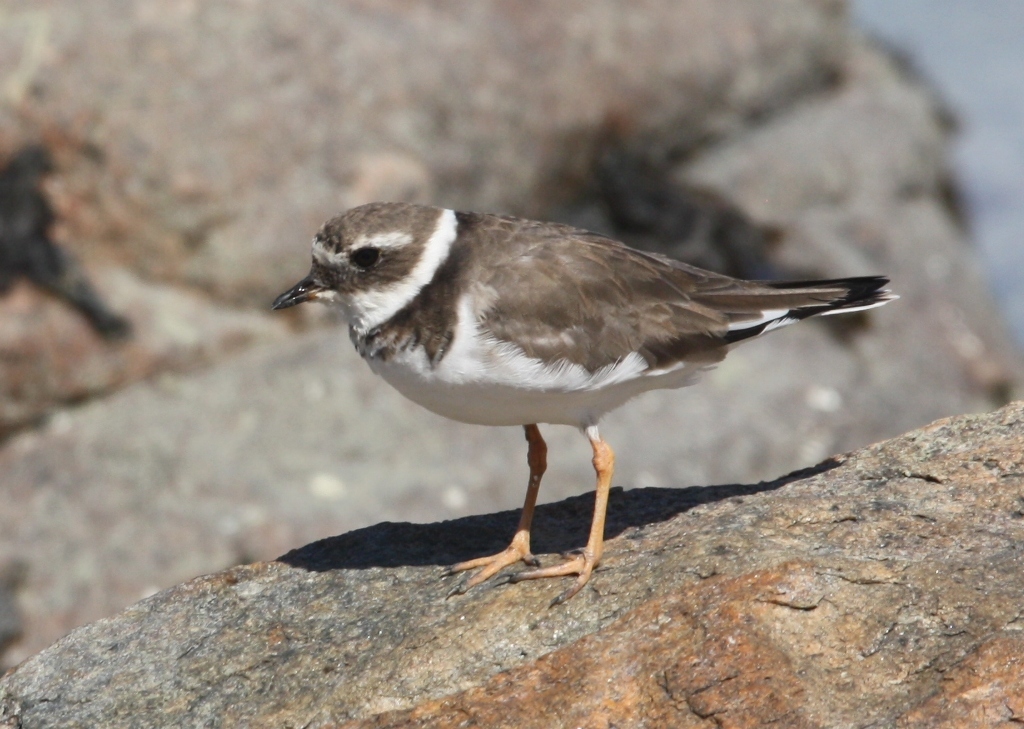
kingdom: Animalia
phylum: Chordata
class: Aves
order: Charadriiformes
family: Charadriidae
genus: Charadrius
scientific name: Charadrius hiaticula
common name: Common ringed plover
